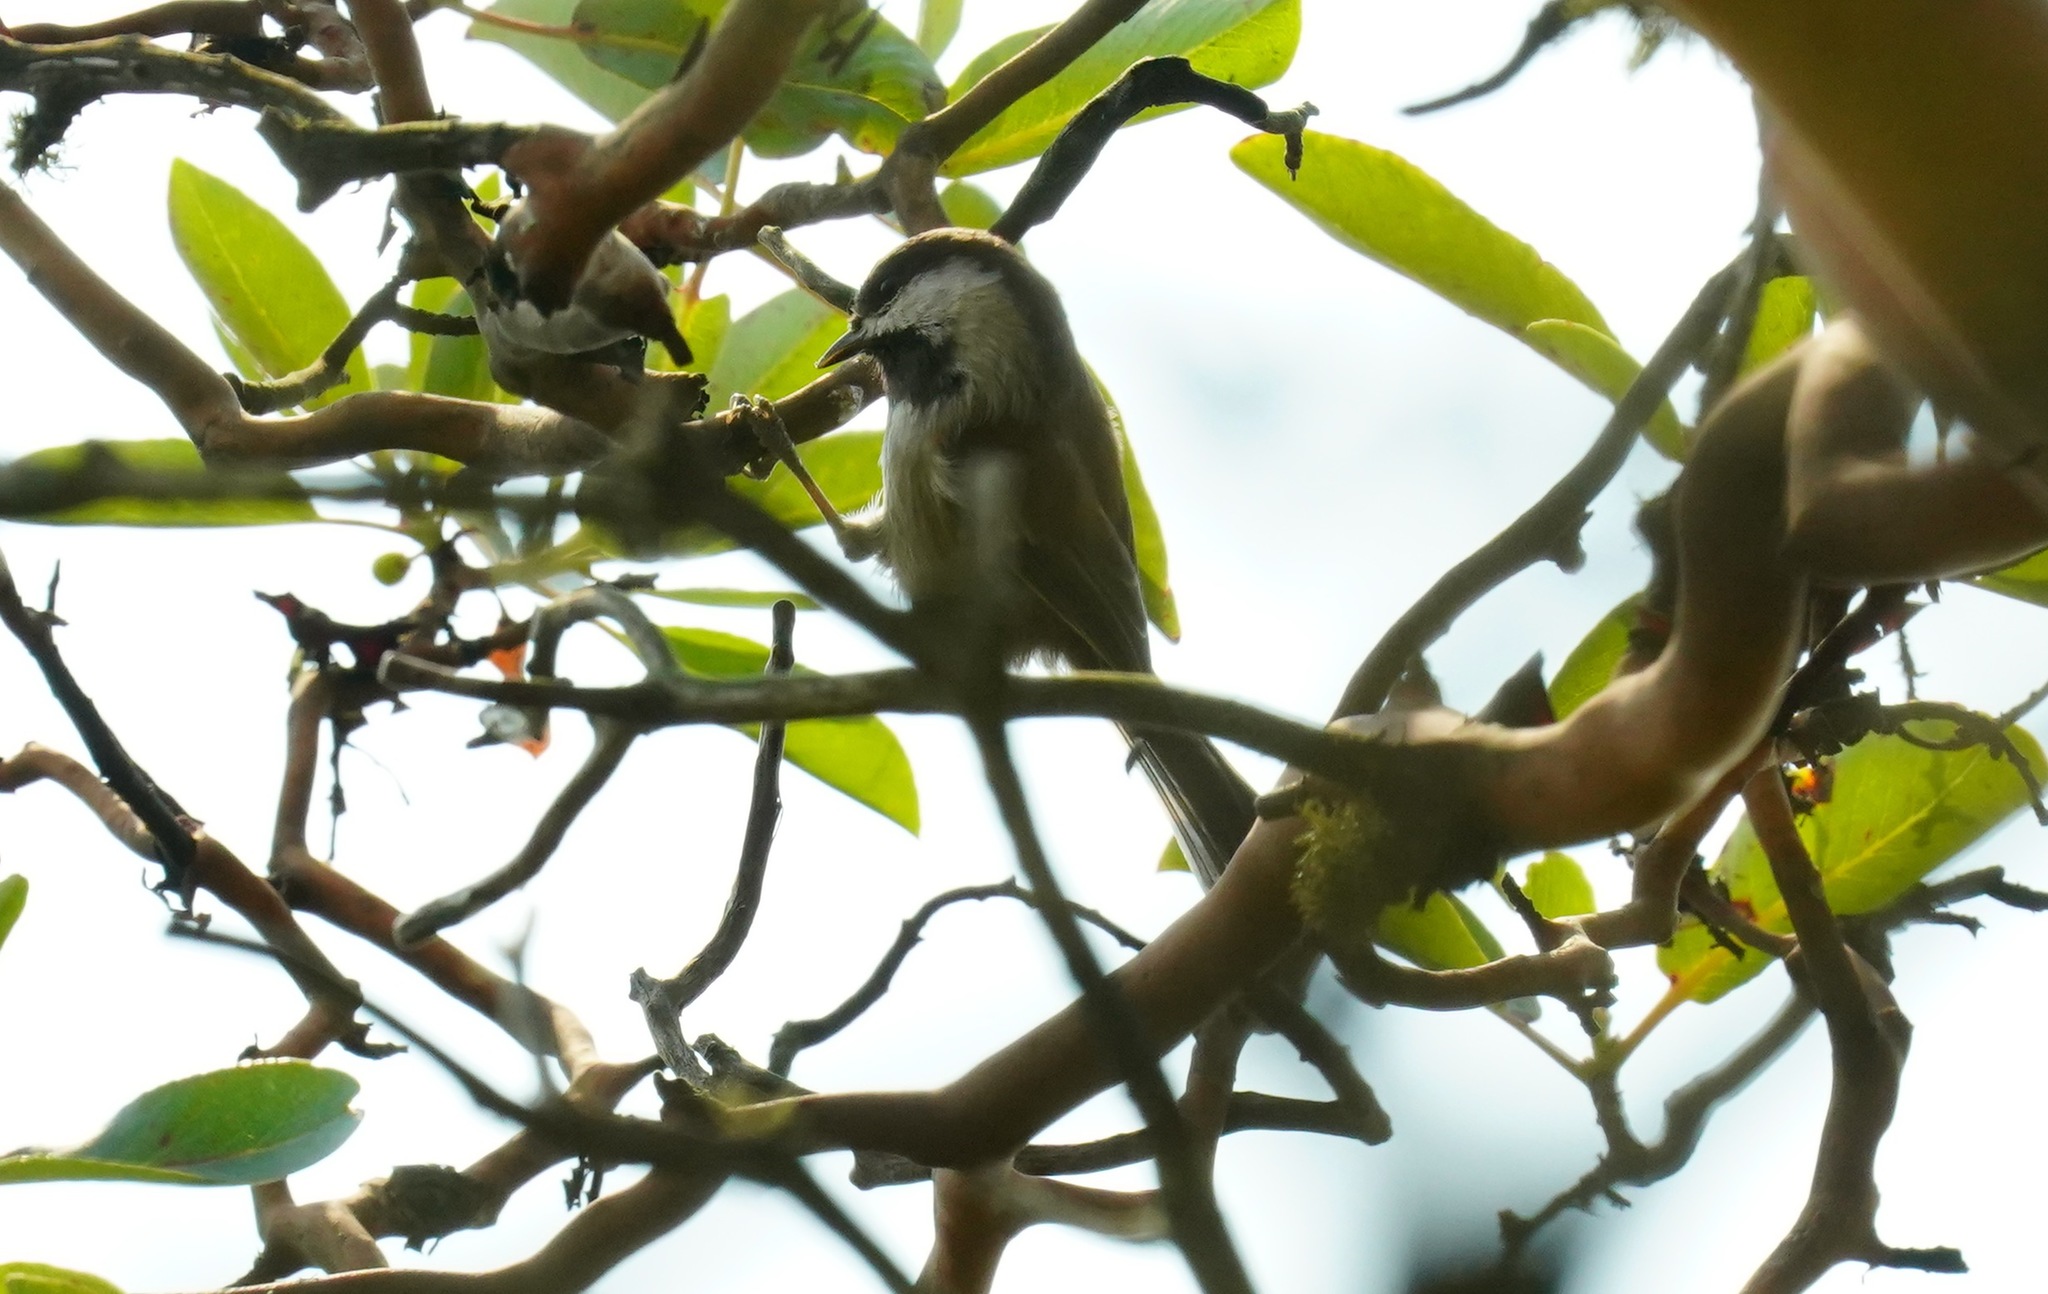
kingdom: Animalia
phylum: Chordata
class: Aves
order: Passeriformes
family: Paridae
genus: Poecile
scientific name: Poecile rufescens
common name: Chestnut-backed chickadee
